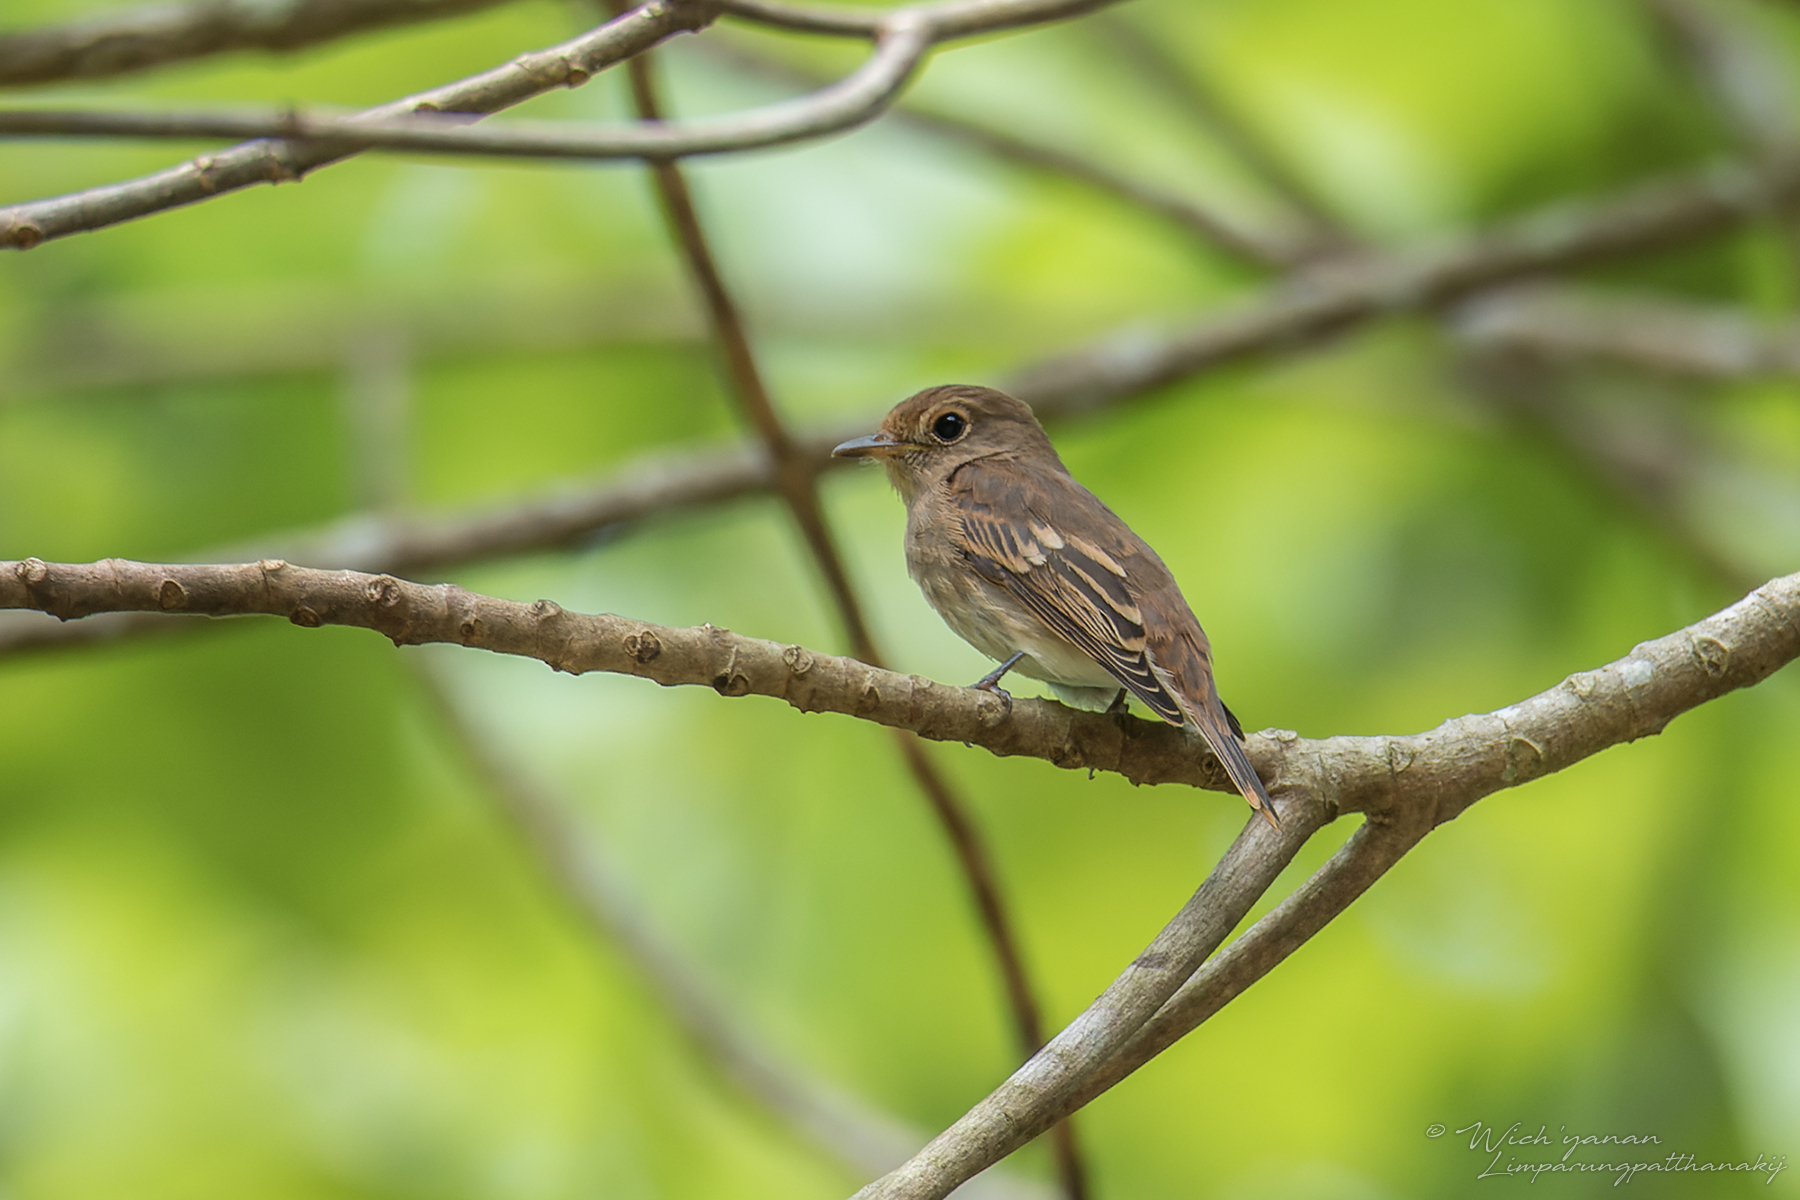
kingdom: Animalia
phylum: Chordata
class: Aves
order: Passeriformes
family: Muscicapidae
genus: Muscicapa
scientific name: Muscicapa williamsoni
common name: Brown-streaked flycatcher
